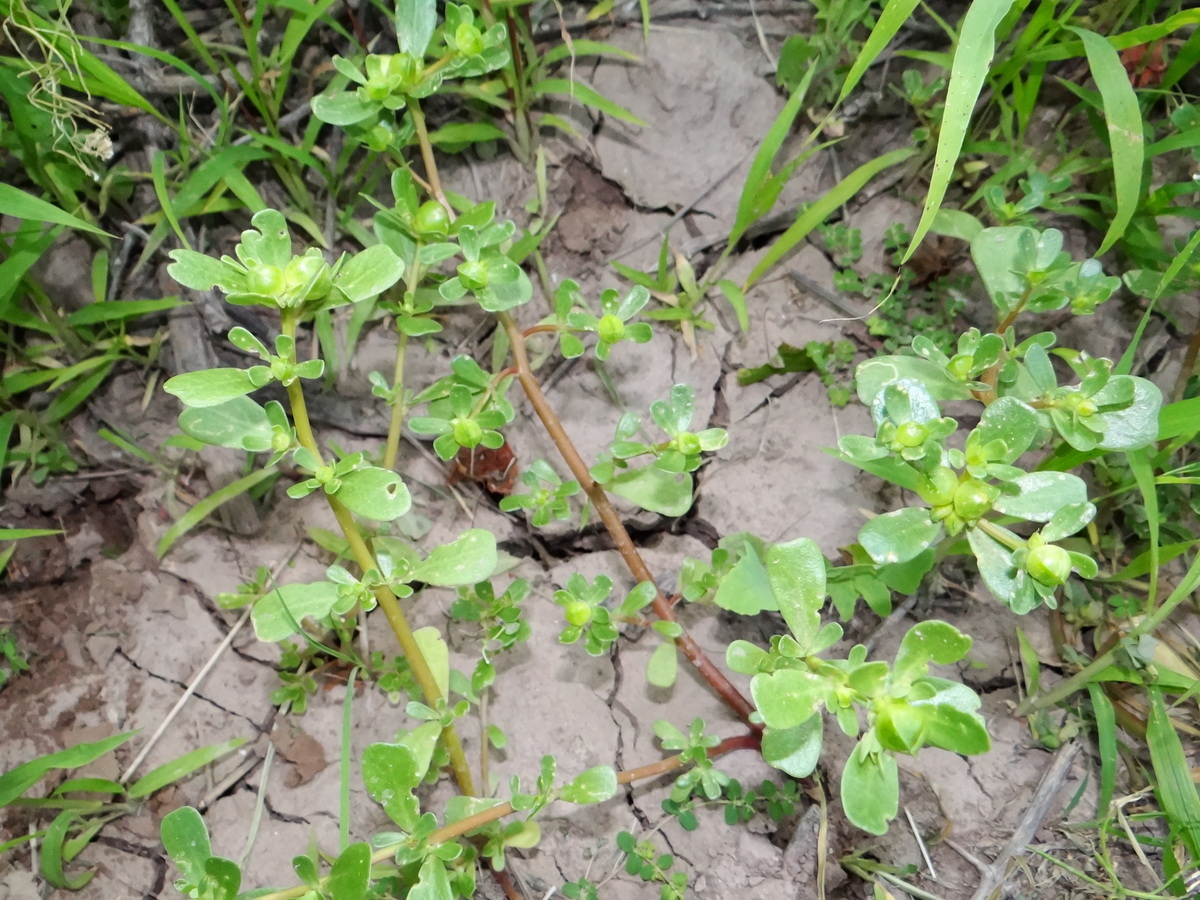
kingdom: Plantae
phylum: Tracheophyta
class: Magnoliopsida
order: Caryophyllales
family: Portulacaceae
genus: Portulaca
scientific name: Portulaca oleracea
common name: Common purslane
